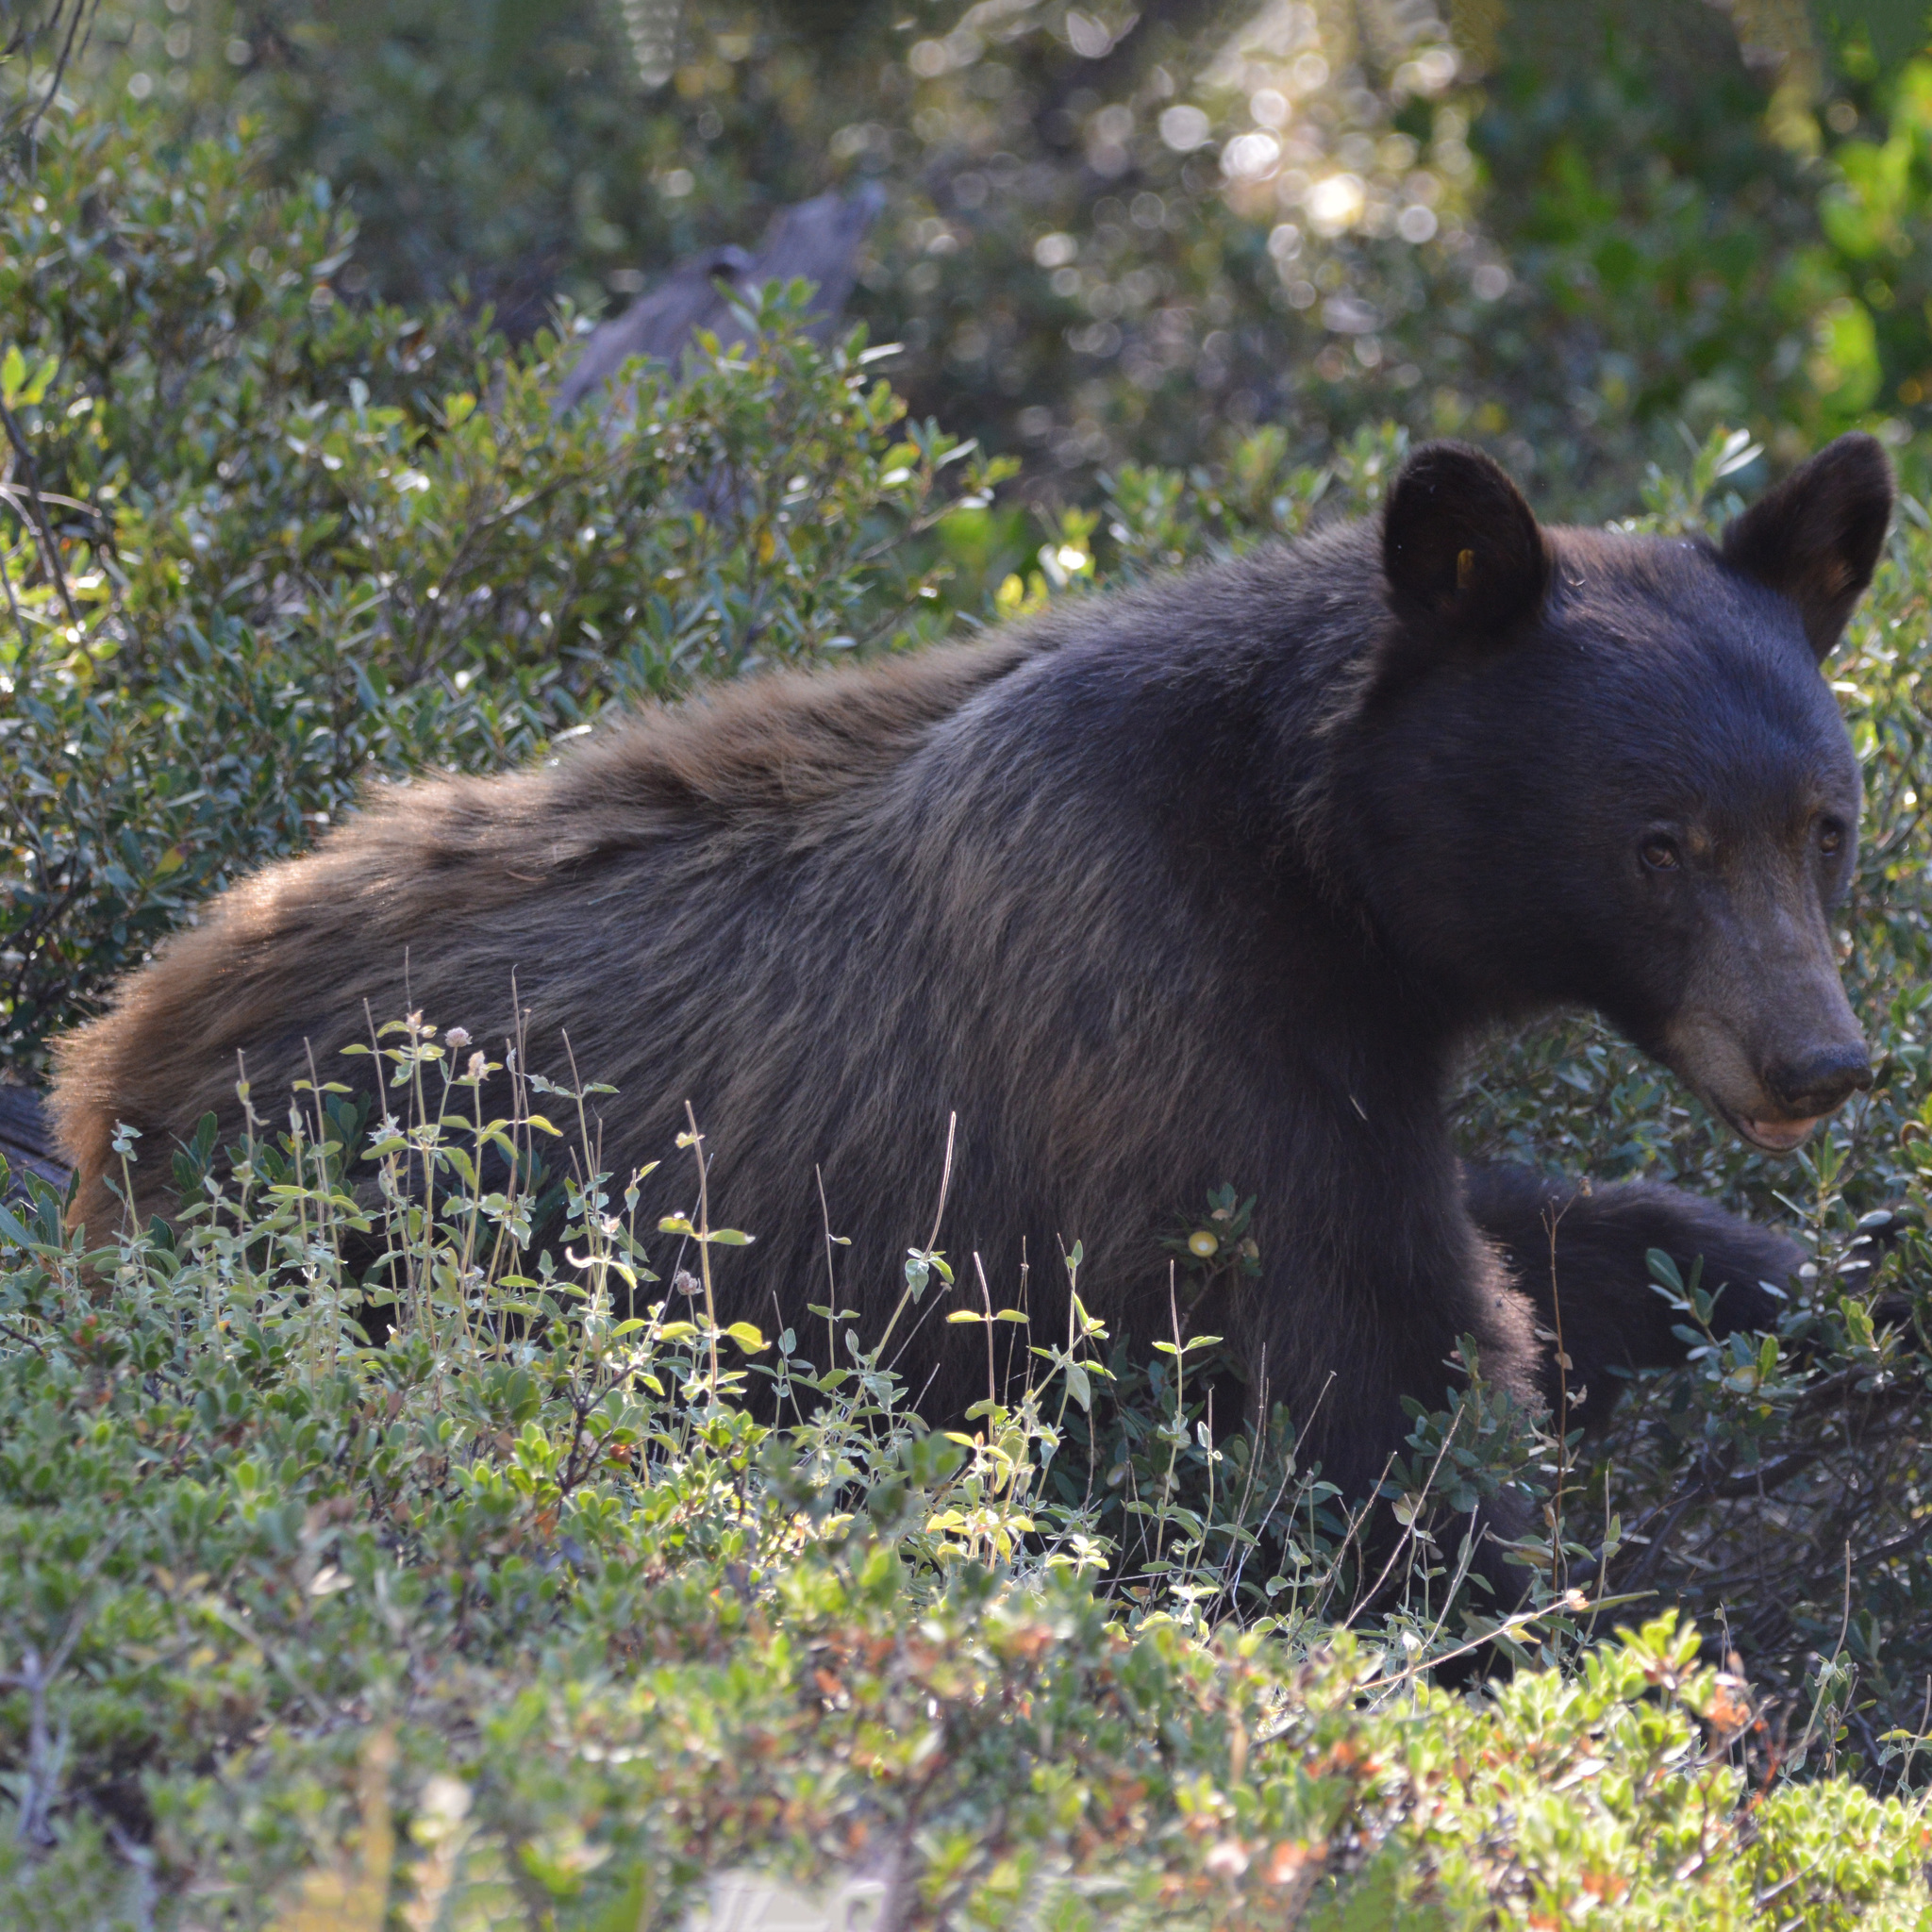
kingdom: Animalia
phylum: Chordata
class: Mammalia
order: Carnivora
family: Ursidae
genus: Ursus
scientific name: Ursus americanus
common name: American black bear
